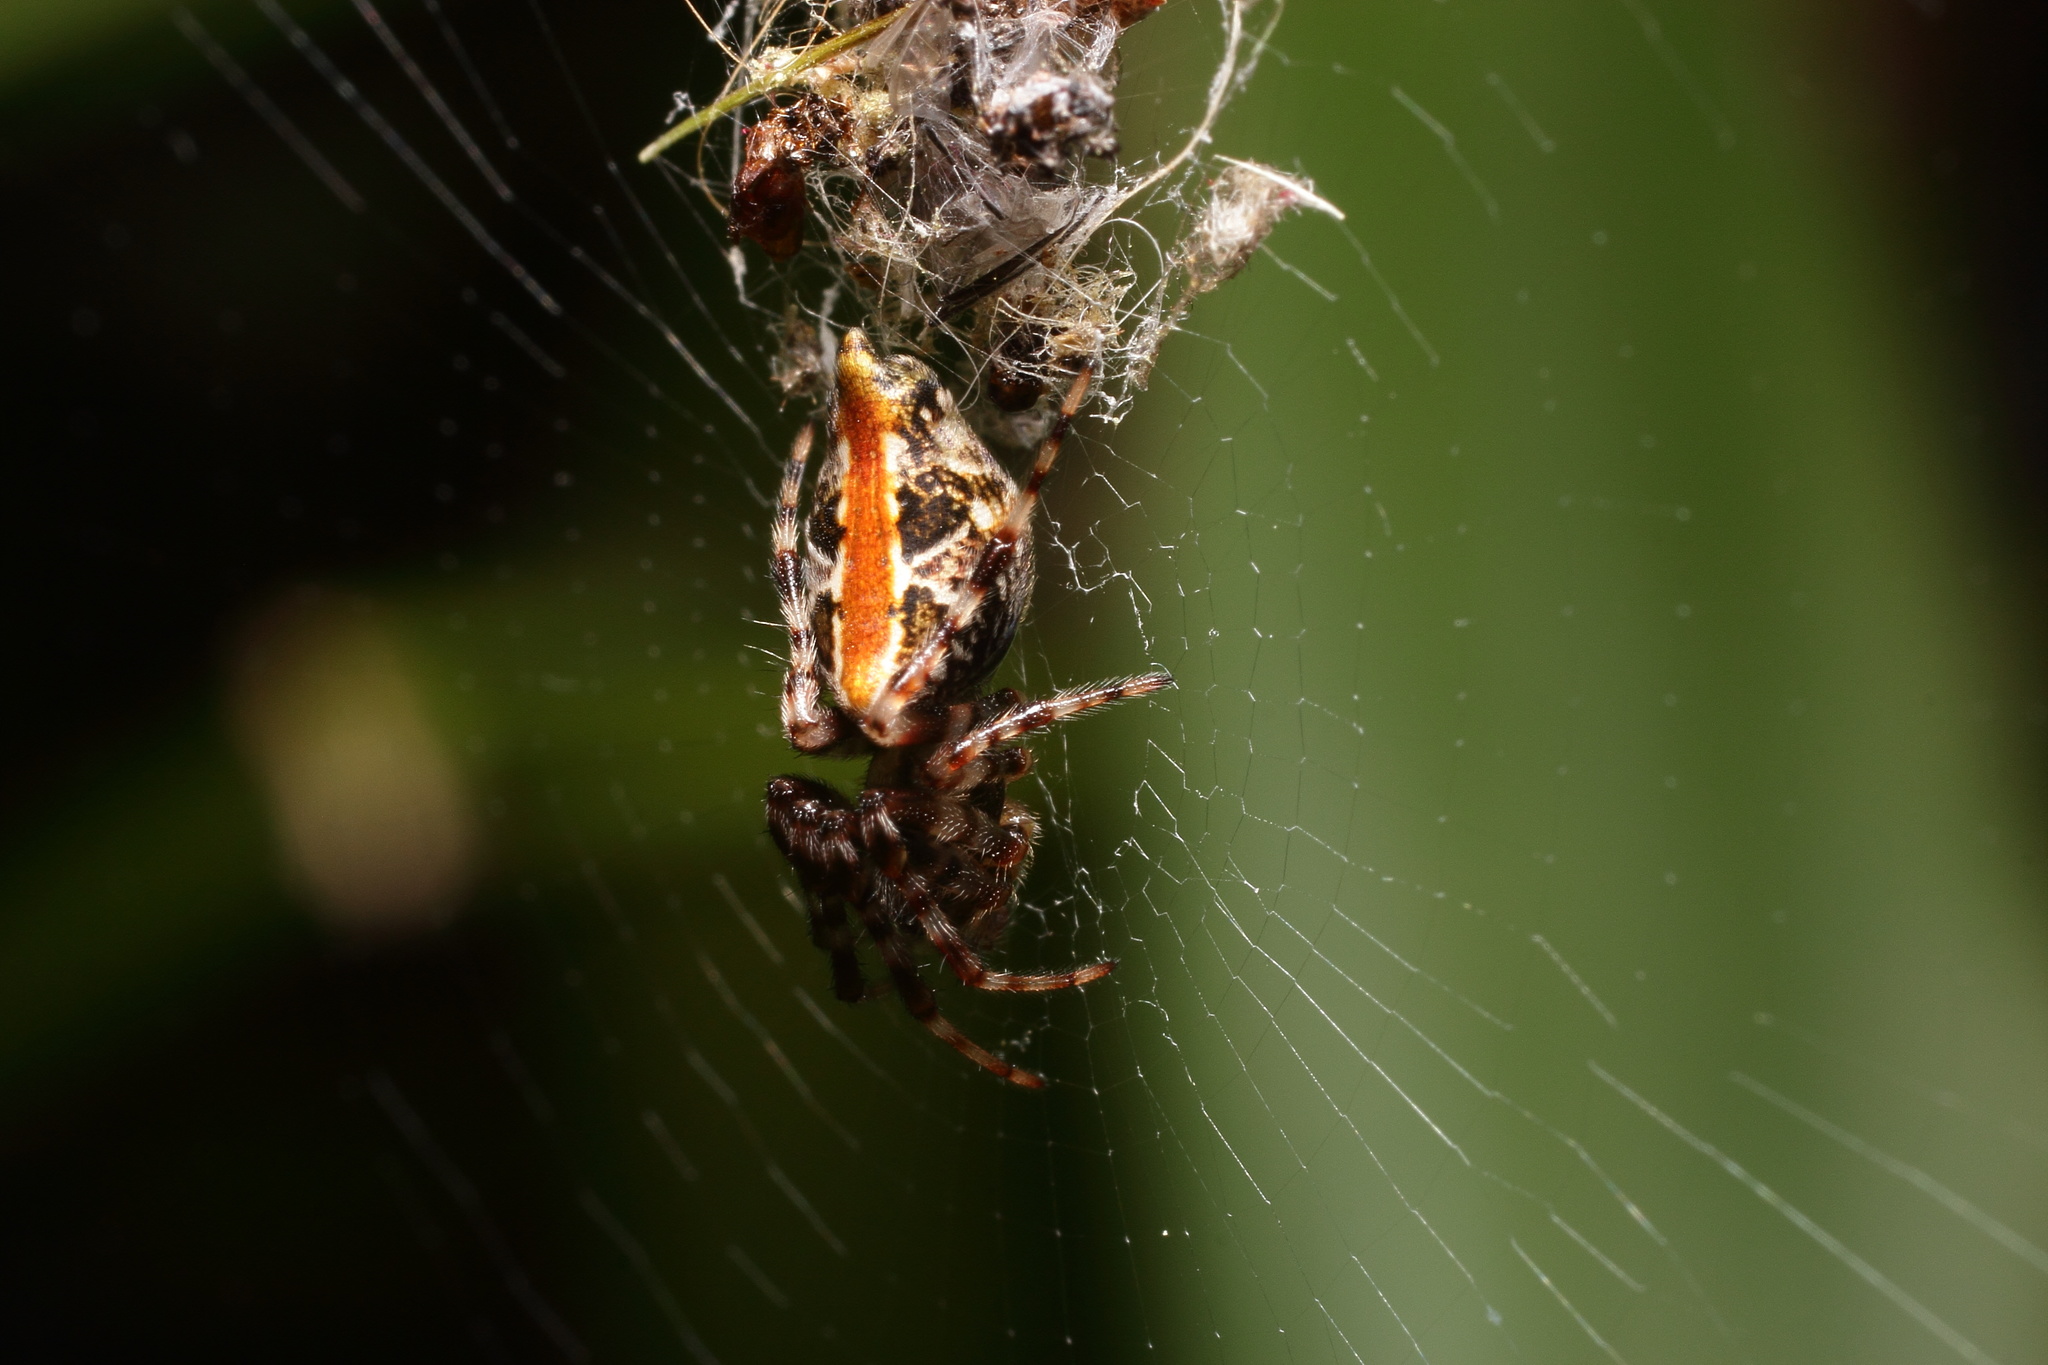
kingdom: Animalia
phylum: Arthropoda
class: Arachnida
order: Araneae
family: Araneidae
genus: Cyclosa
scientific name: Cyclosa omonaga
